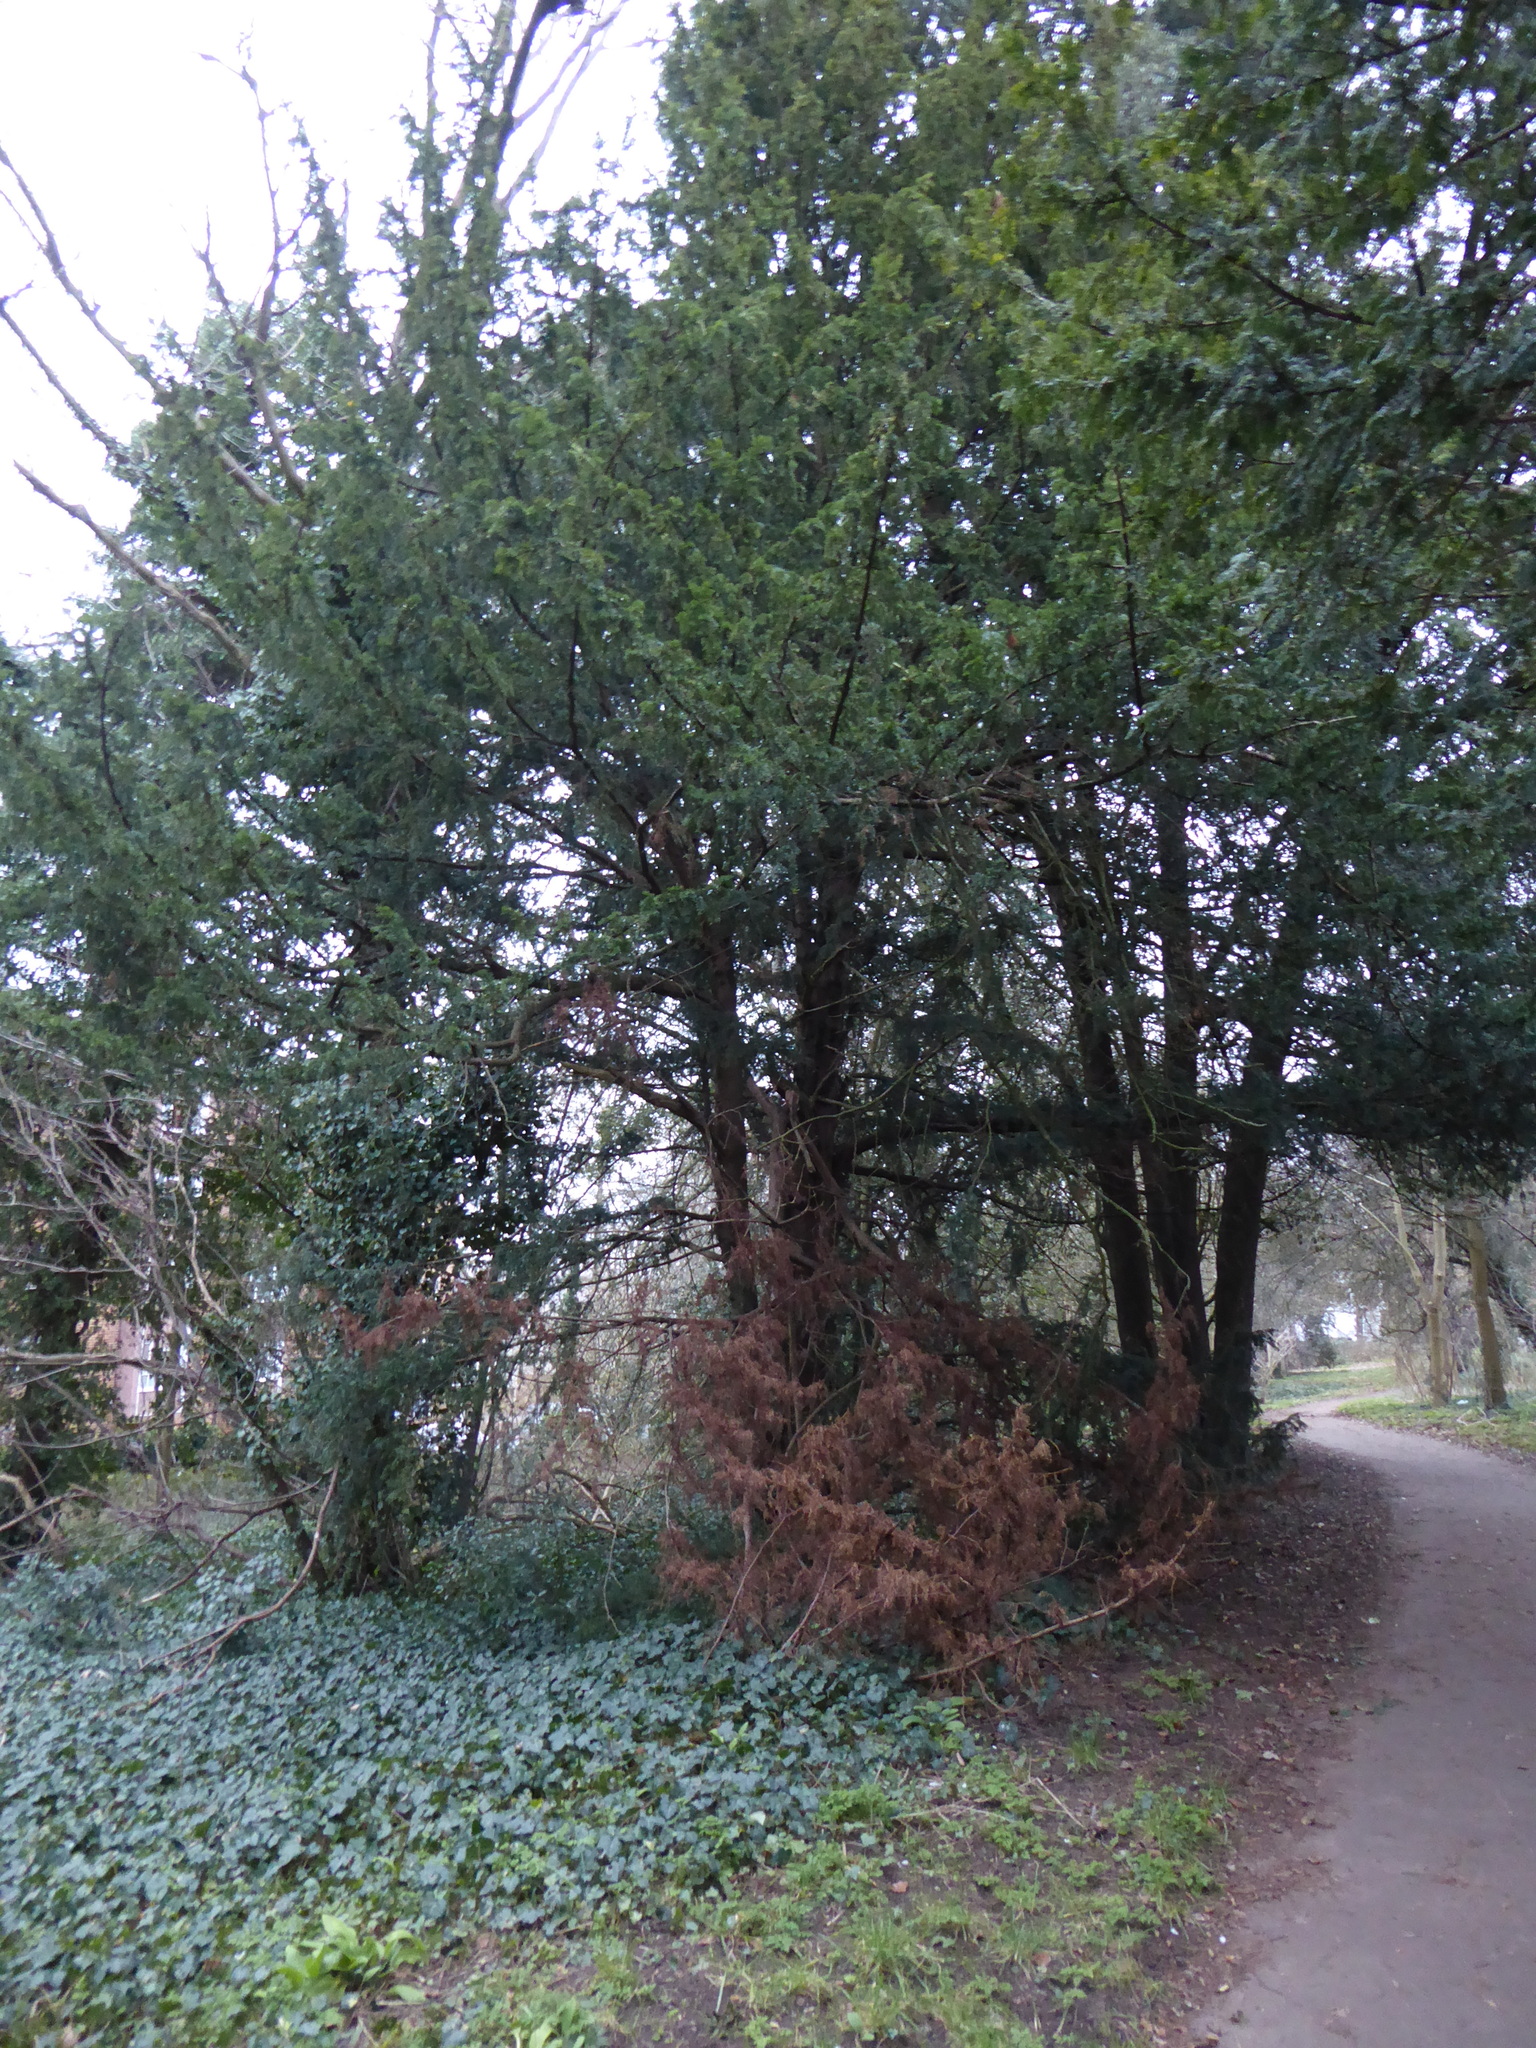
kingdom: Plantae
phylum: Tracheophyta
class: Pinopsida
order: Pinales
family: Taxaceae
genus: Taxus
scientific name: Taxus baccata
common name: Yew
